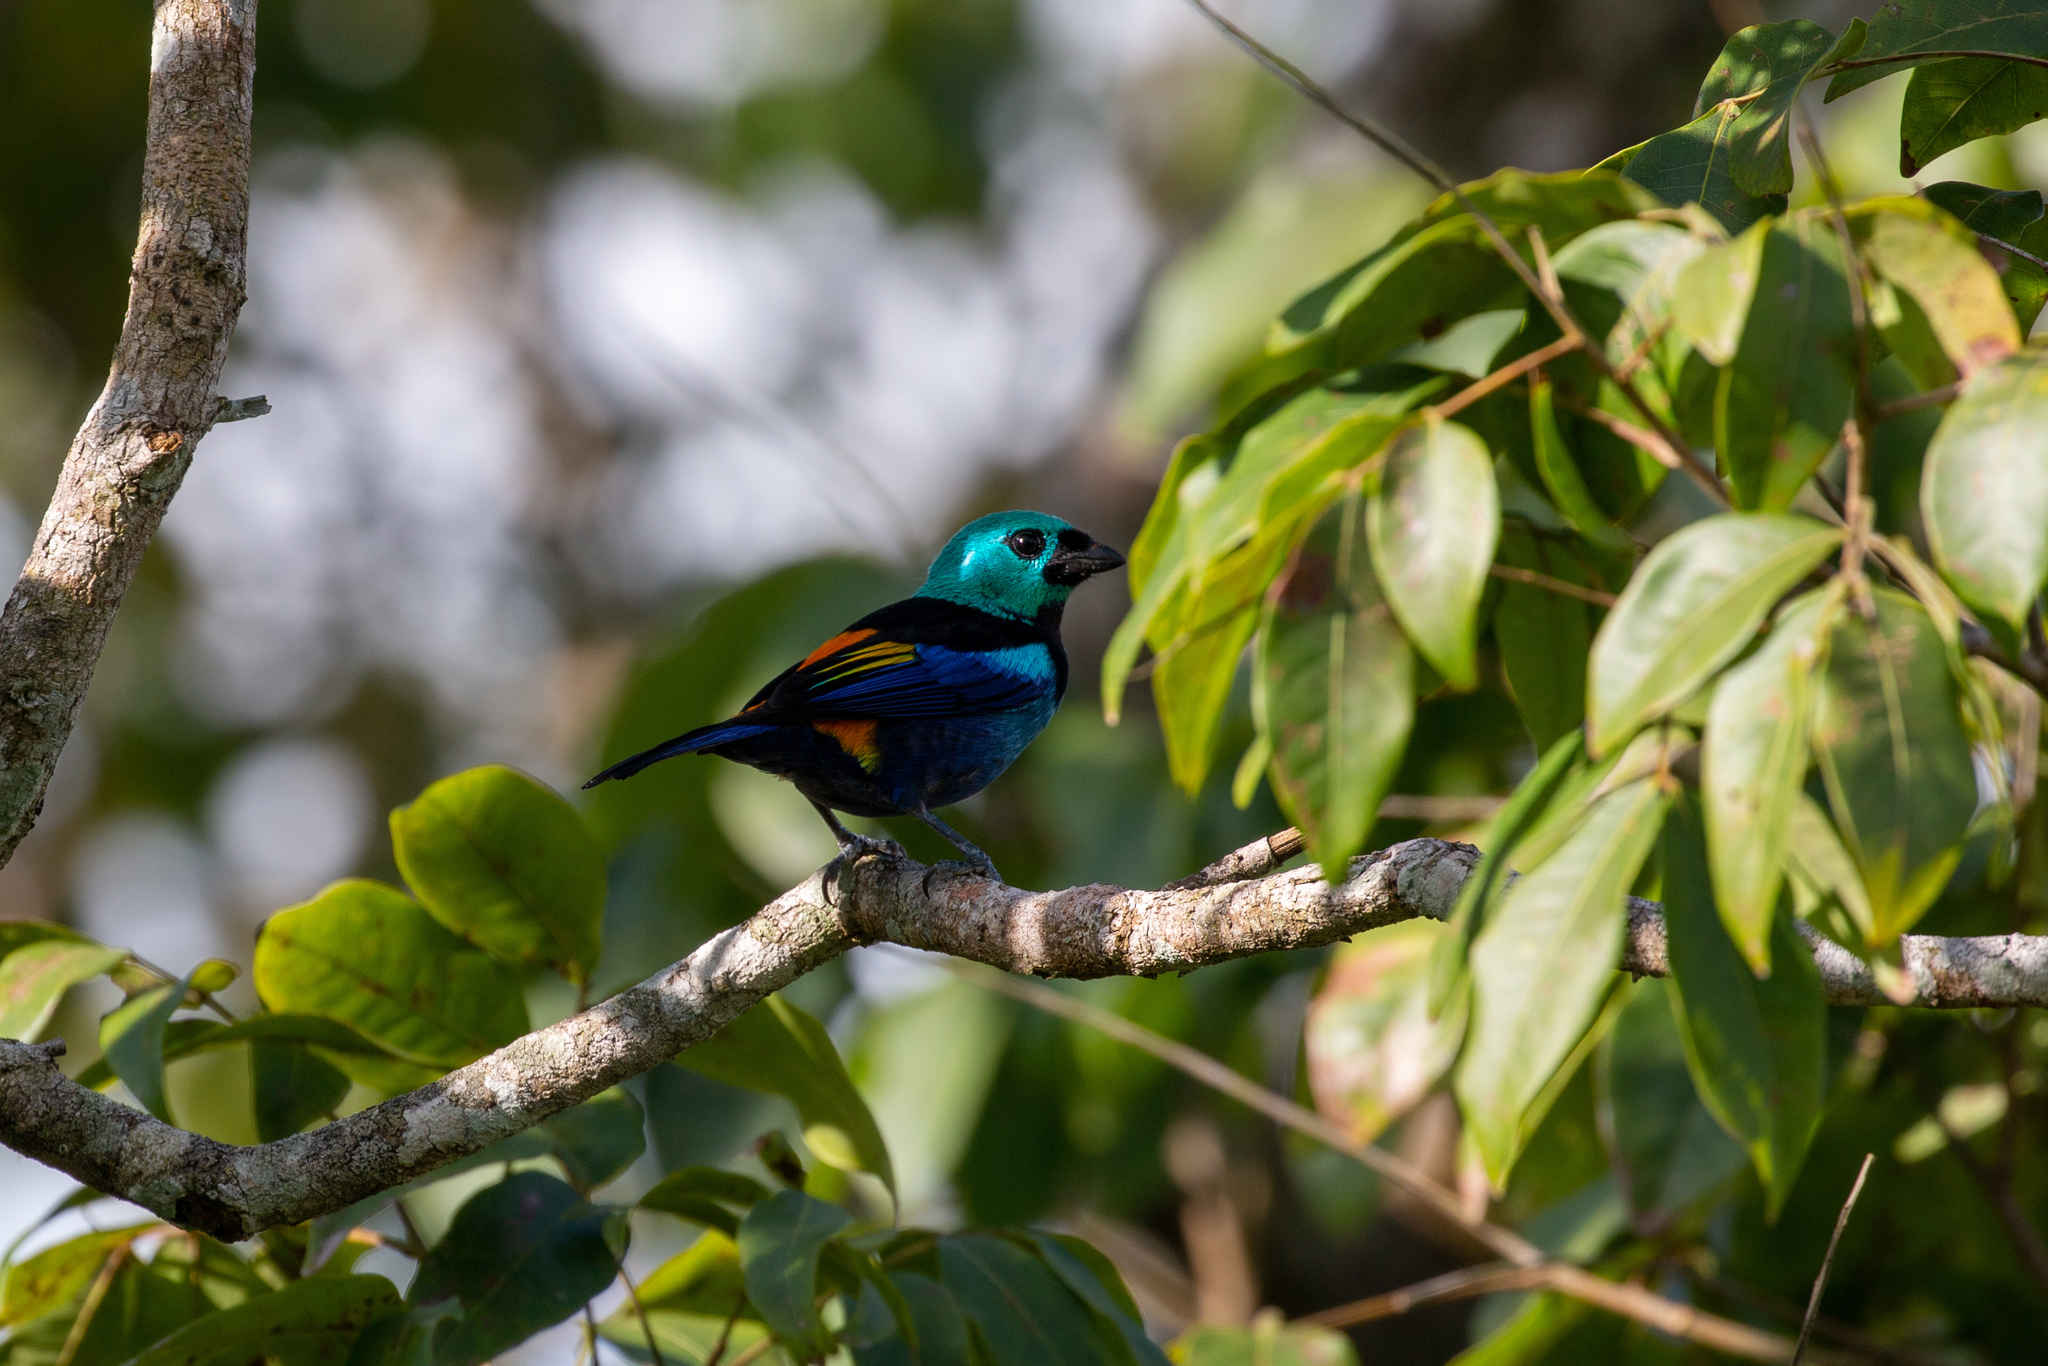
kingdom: Animalia
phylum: Chordata
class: Aves
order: Passeriformes
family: Thraupidae
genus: Tangara
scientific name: Tangara fastuosa
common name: Seven-colored tanager
